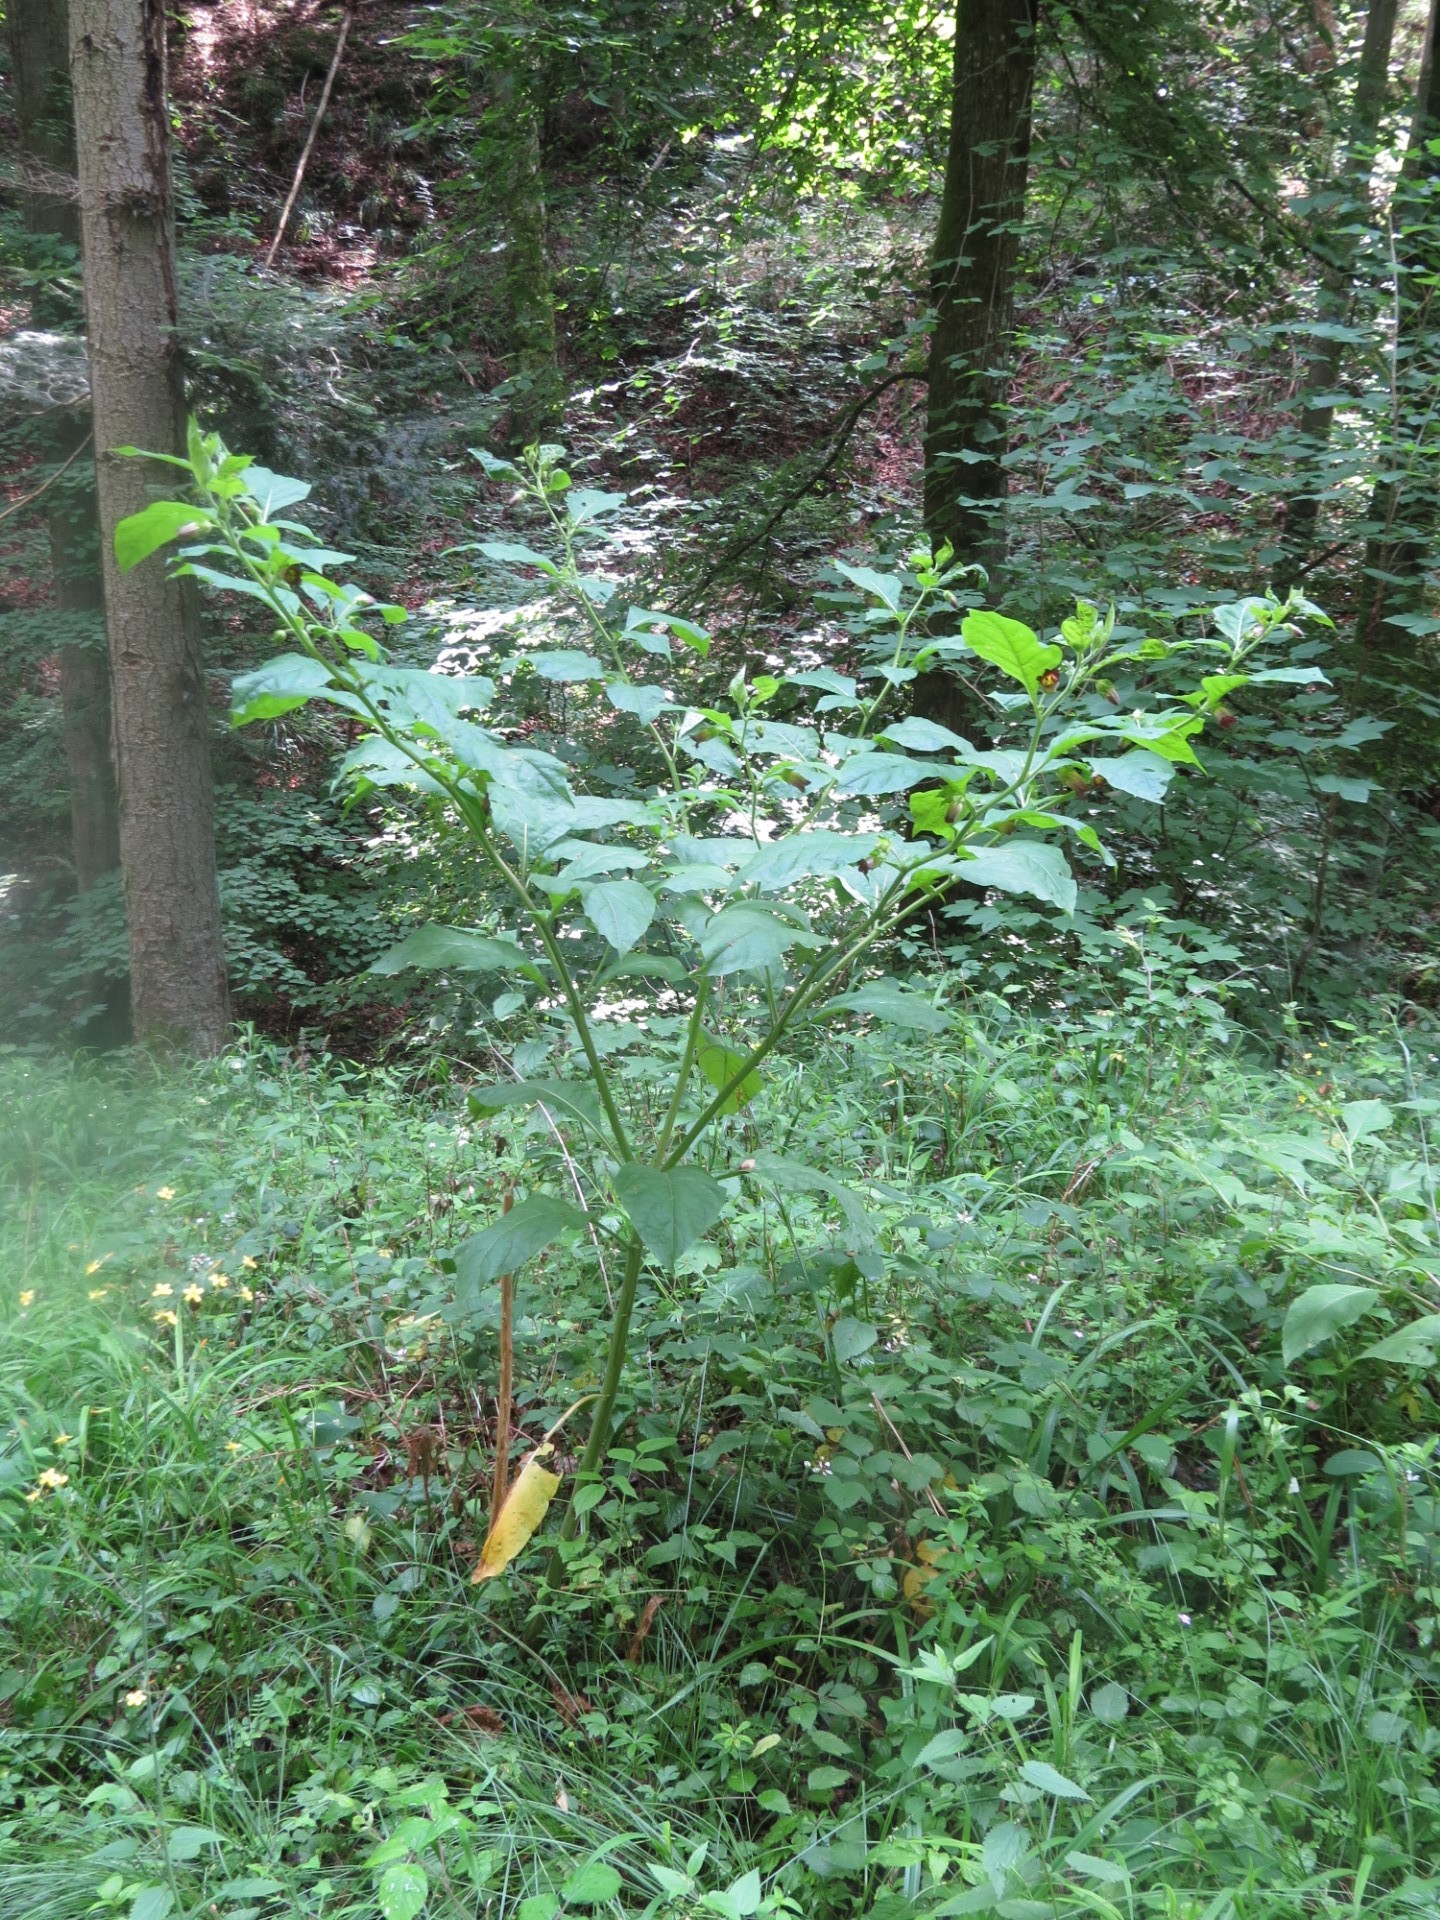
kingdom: Plantae
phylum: Tracheophyta
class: Magnoliopsida
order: Solanales
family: Solanaceae
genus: Atropa
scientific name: Atropa belladonna
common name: Deadly nightshade
